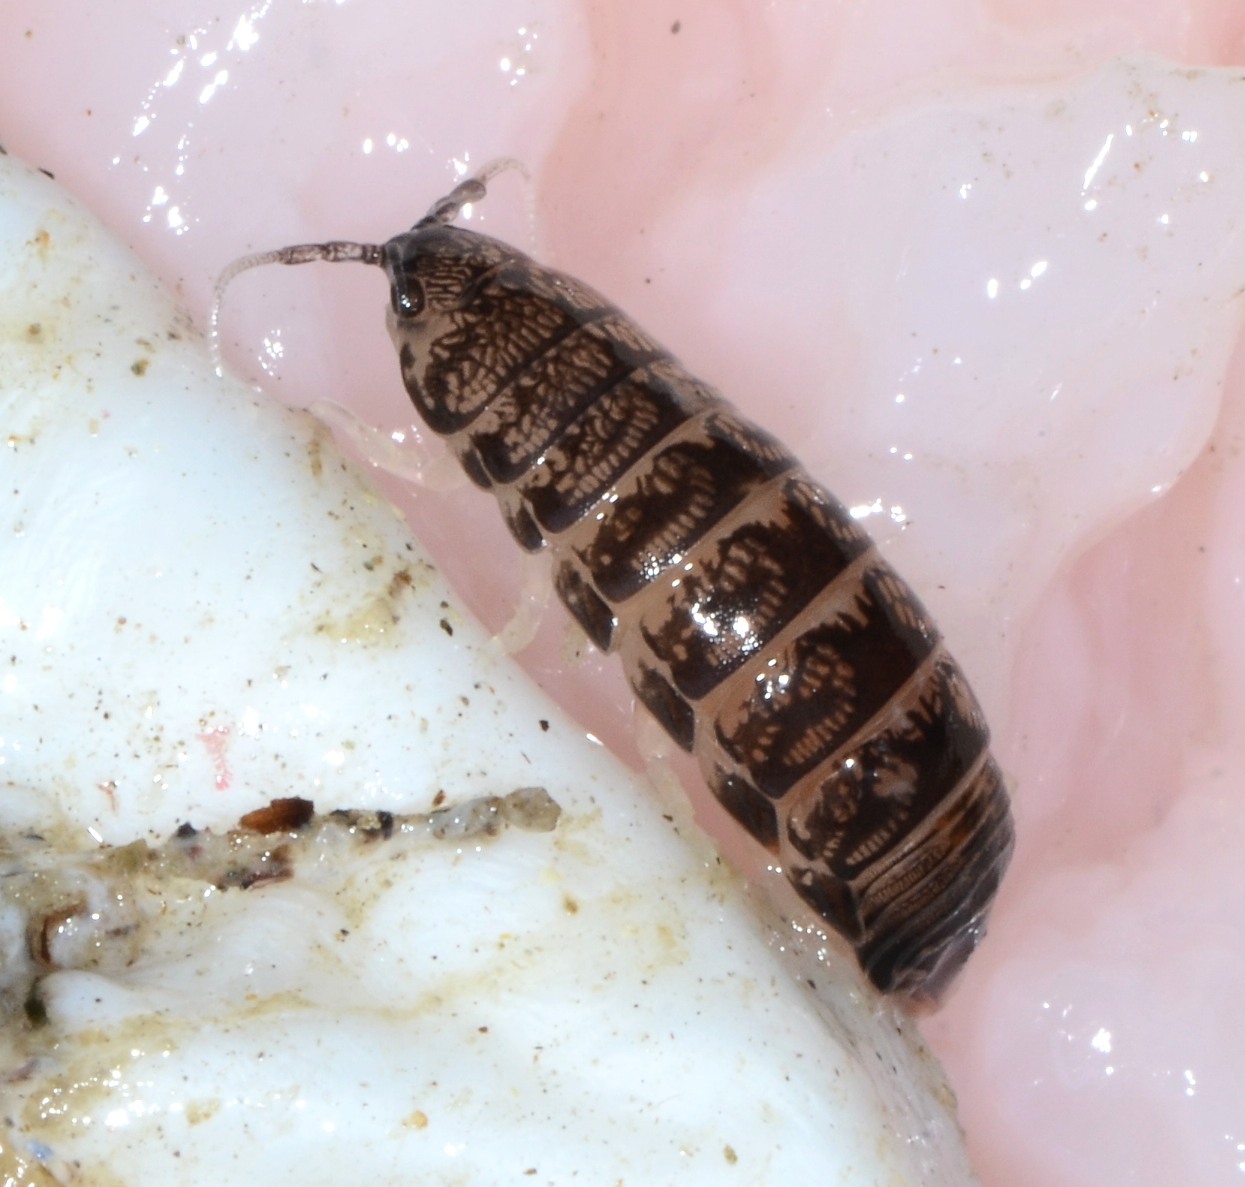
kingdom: Animalia
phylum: Arthropoda
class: Malacostraca
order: Isopoda
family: Cirolanidae
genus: Cirolana
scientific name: Cirolana harfordi
